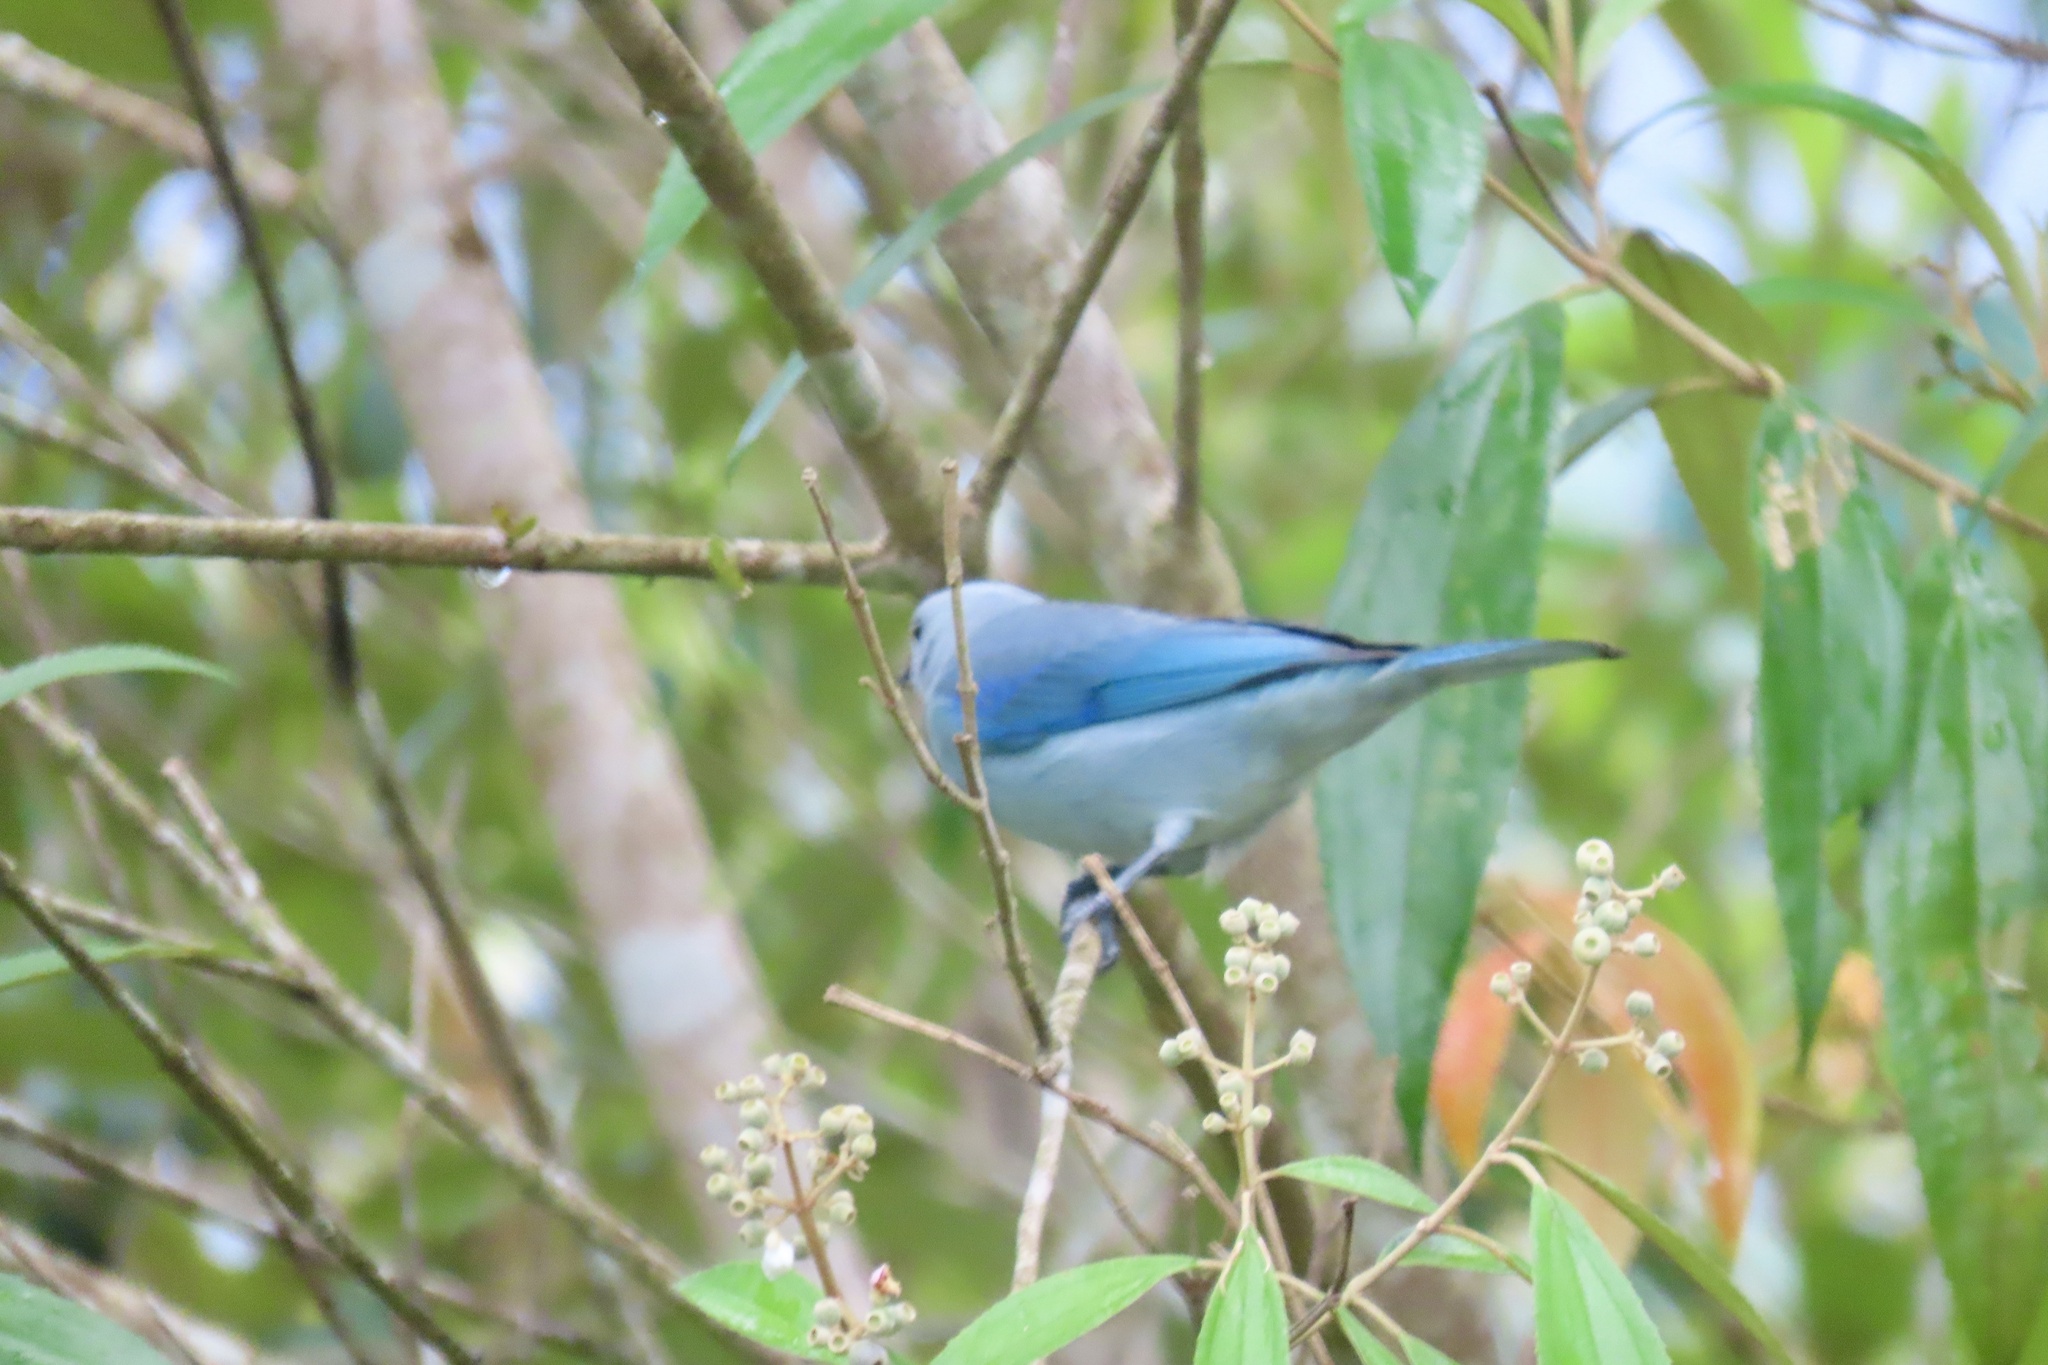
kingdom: Animalia
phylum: Chordata
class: Aves
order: Passeriformes
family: Thraupidae
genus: Thraupis
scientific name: Thraupis episcopus
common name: Blue-grey tanager
